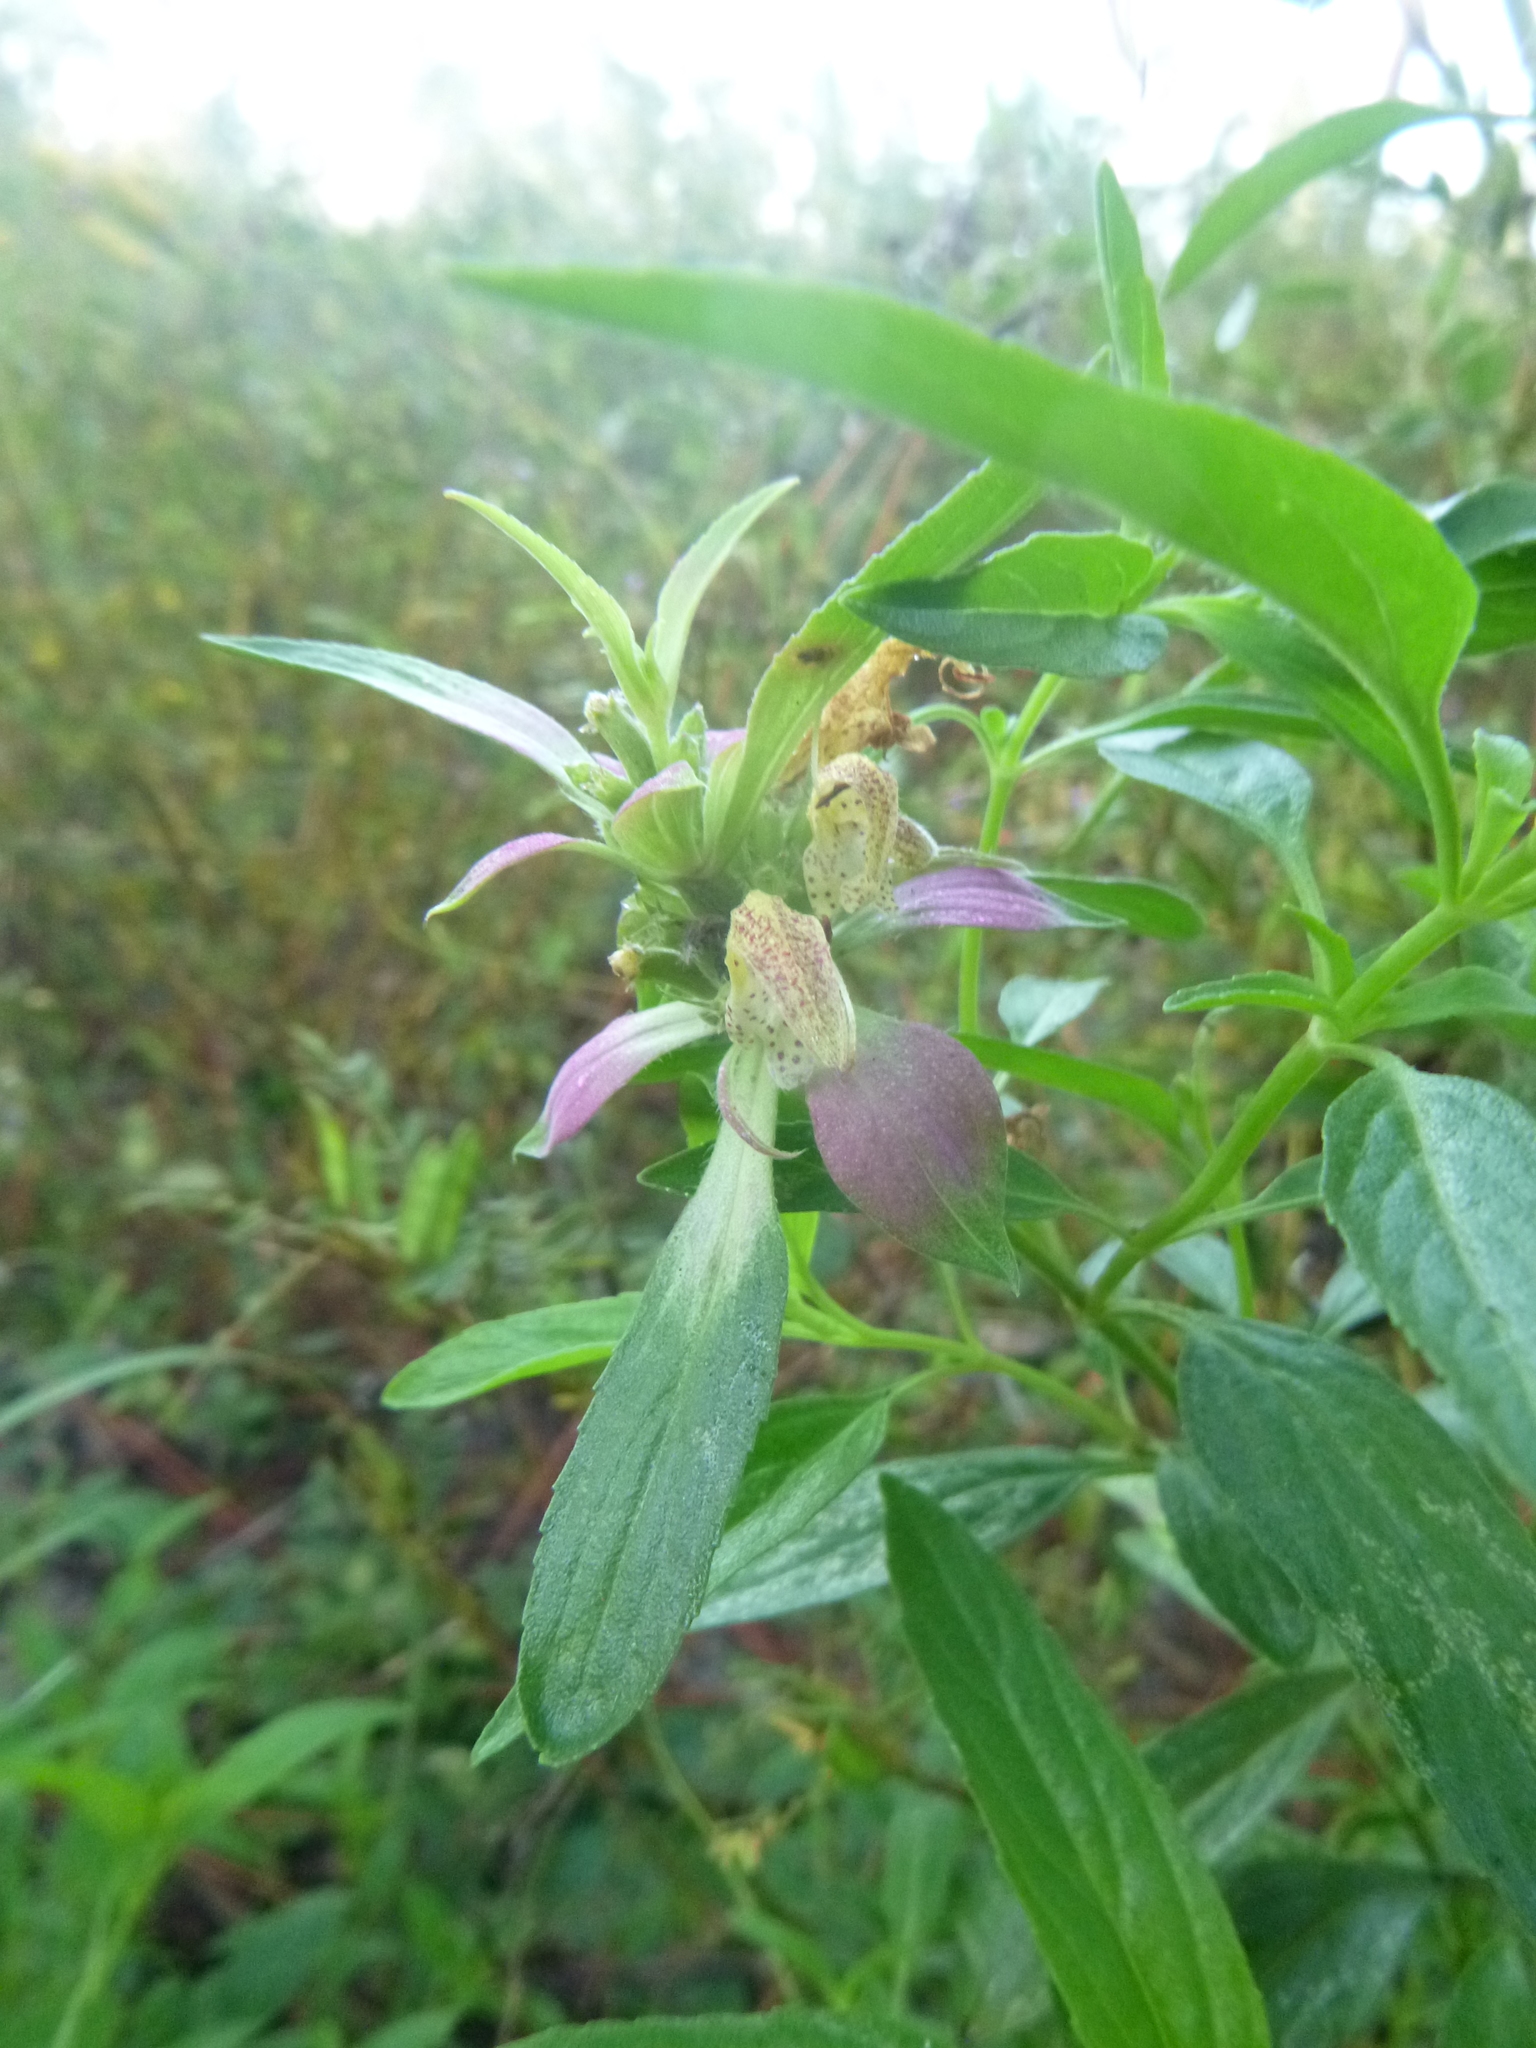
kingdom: Plantae
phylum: Tracheophyta
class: Magnoliopsida
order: Lamiales
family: Lamiaceae
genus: Monarda
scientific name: Monarda punctata
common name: Dotted monarda
